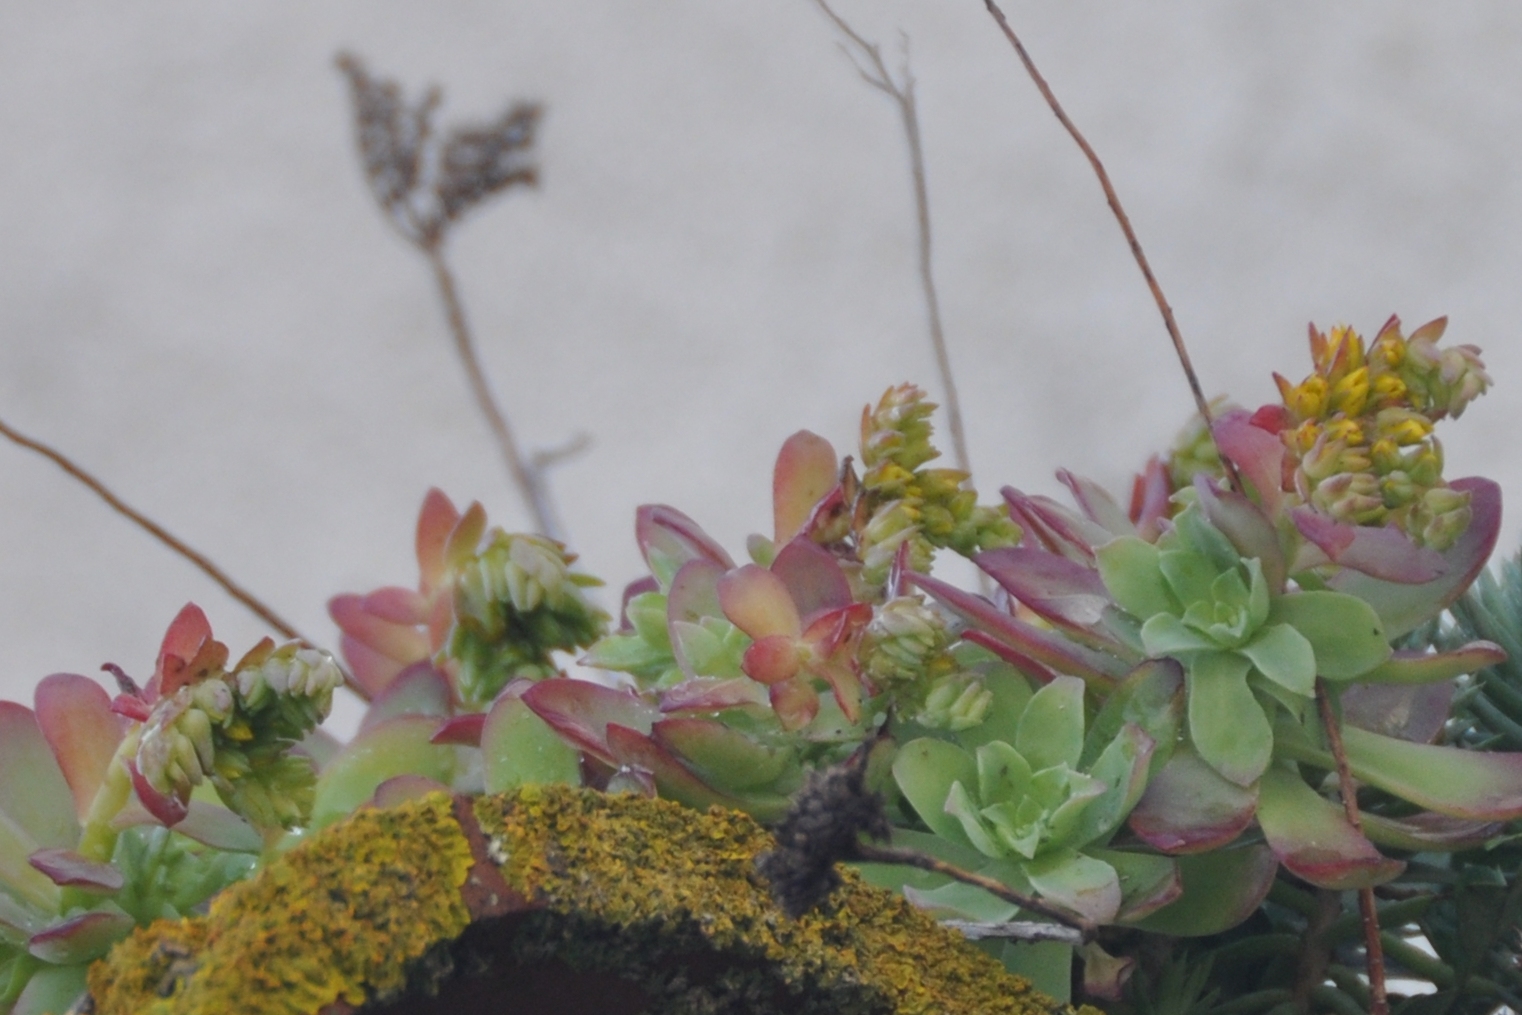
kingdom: Plantae
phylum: Tracheophyta
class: Magnoliopsida
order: Saxifragales
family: Crassulaceae
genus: Sedum
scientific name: Sedum palmeri
